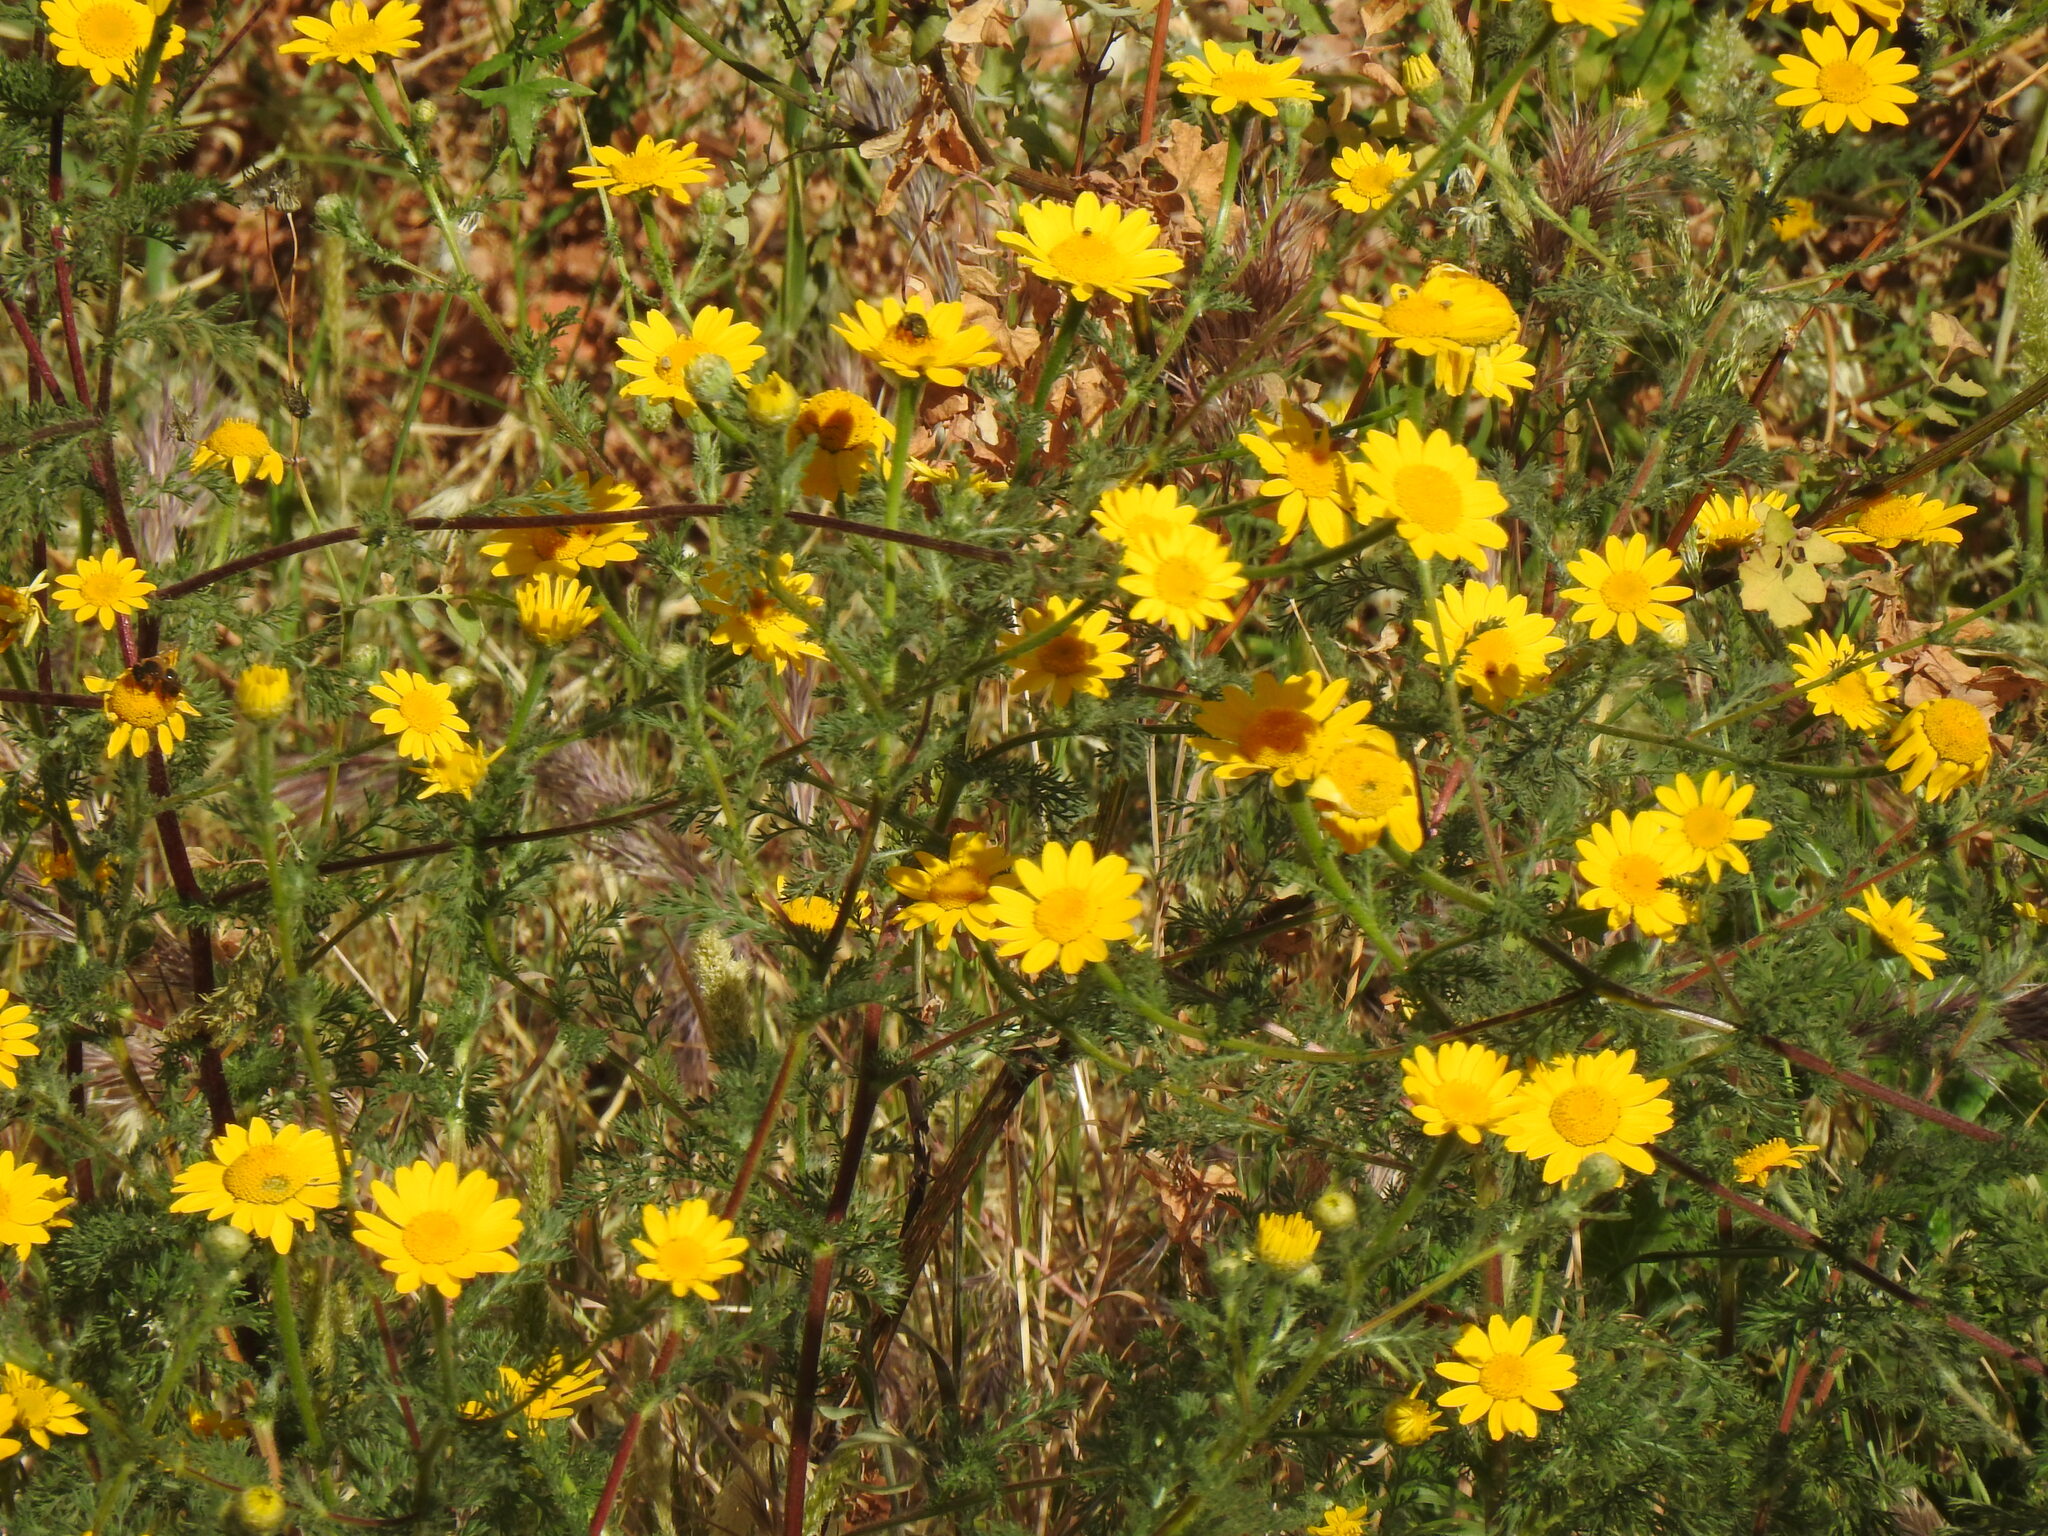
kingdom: Plantae
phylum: Tracheophyta
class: Magnoliopsida
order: Asterales
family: Asteraceae
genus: Anacyclus
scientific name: Anacyclus radiatus
